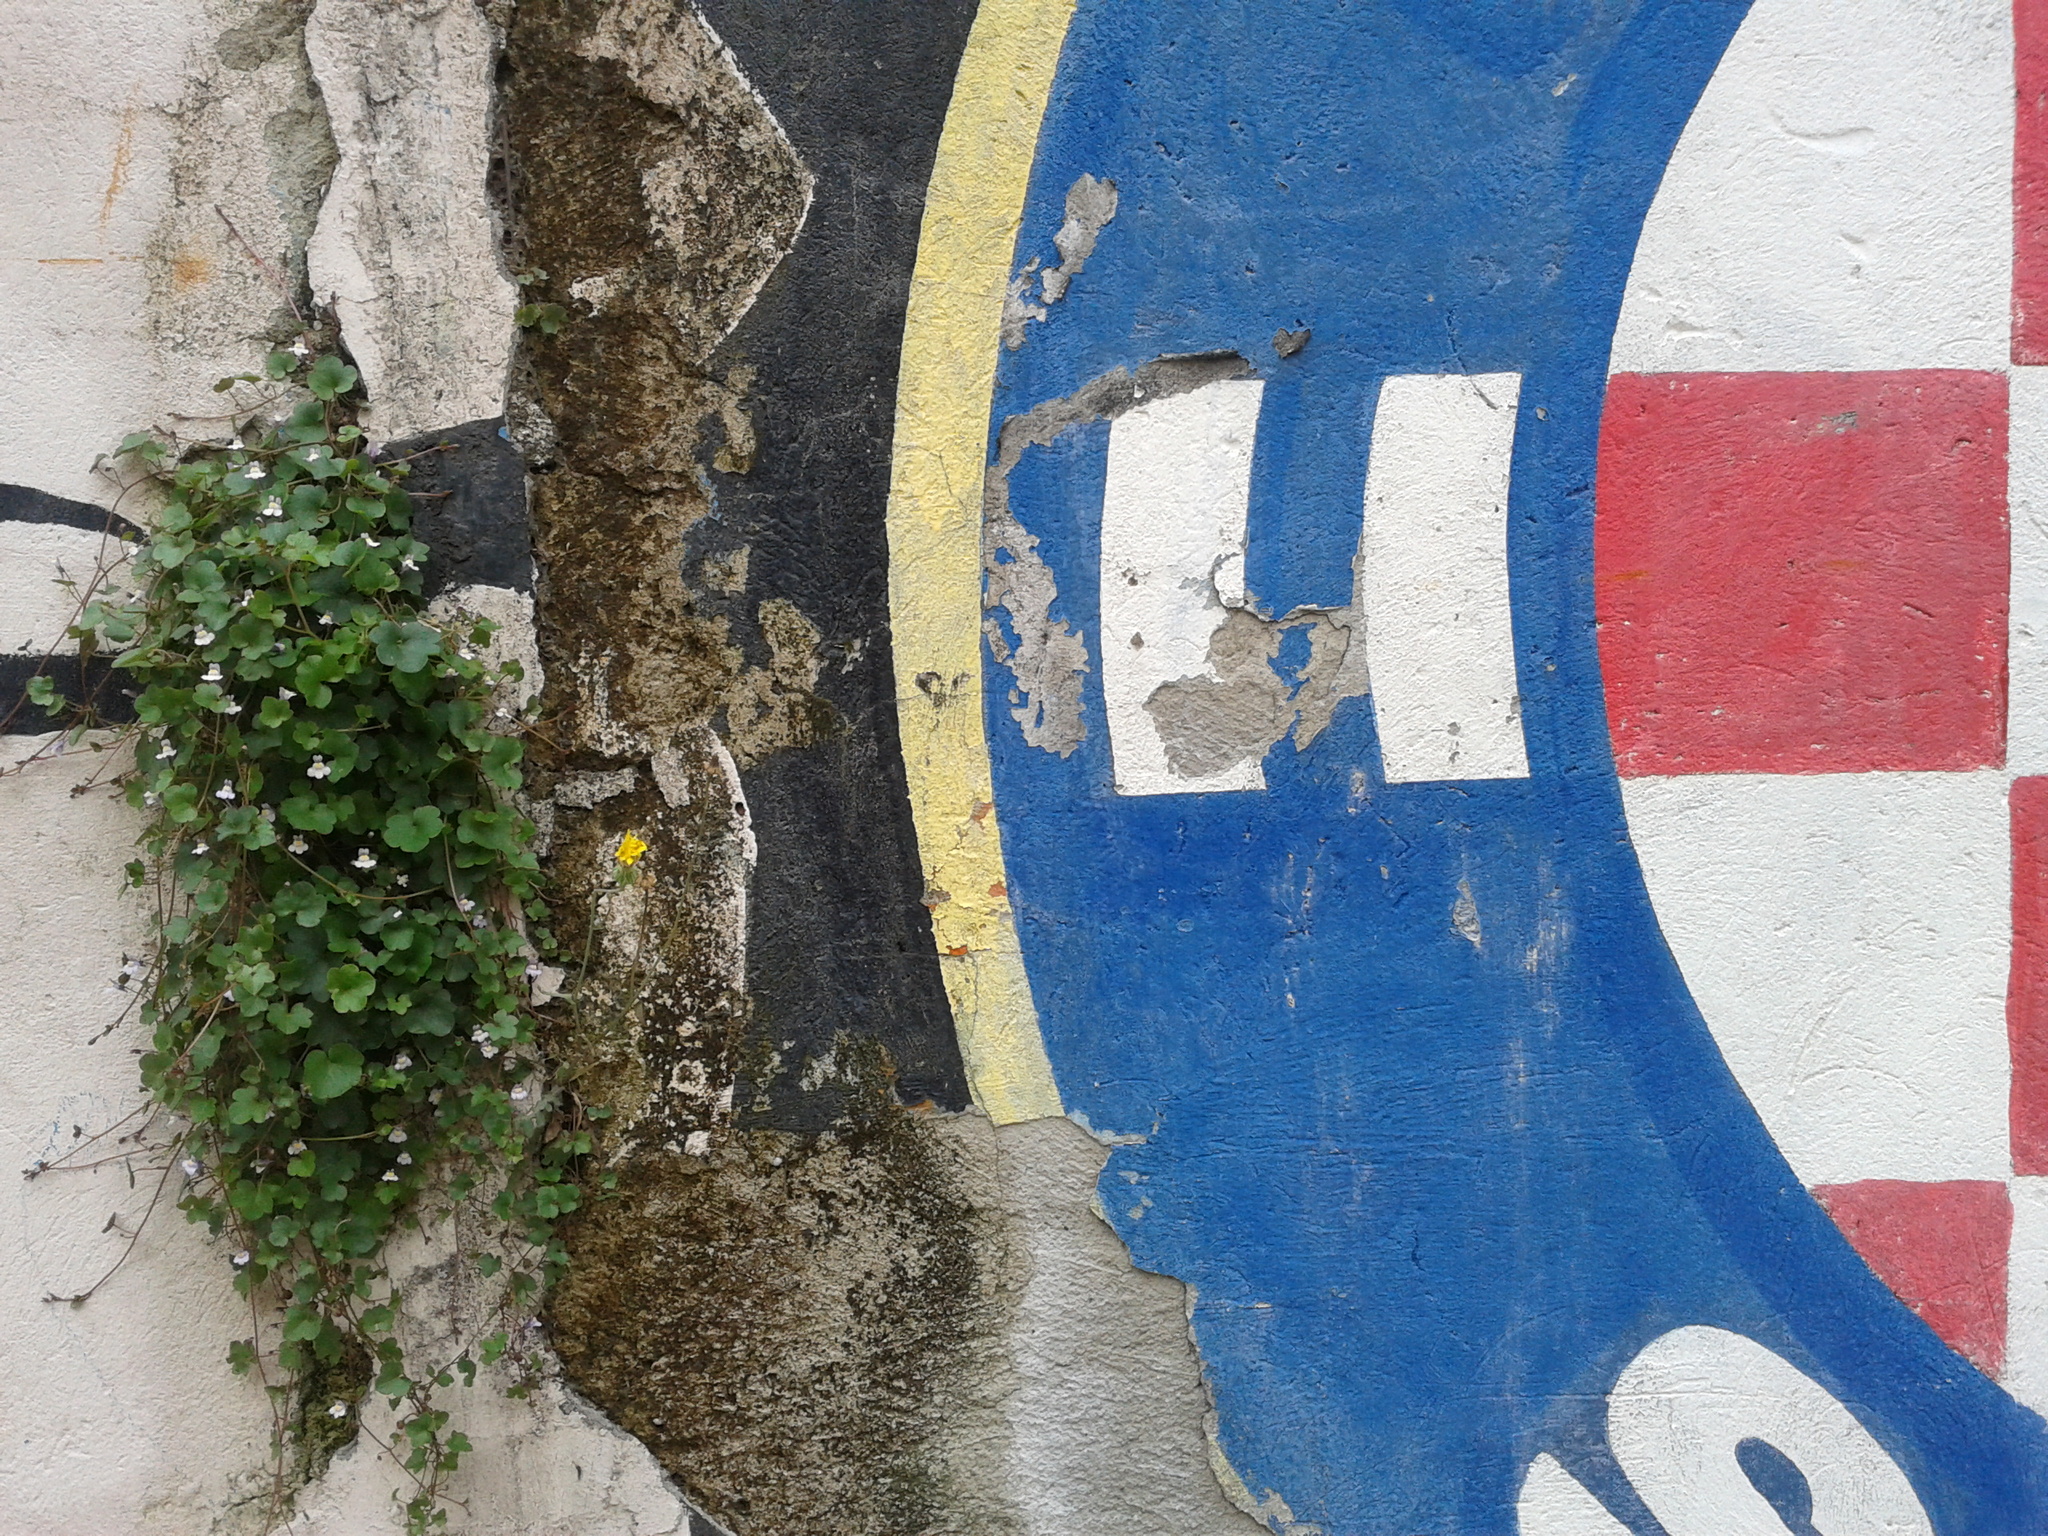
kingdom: Plantae
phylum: Tracheophyta
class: Magnoliopsida
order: Lamiales
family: Plantaginaceae
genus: Cymbalaria
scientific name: Cymbalaria muralis
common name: Ivy-leaved toadflax
